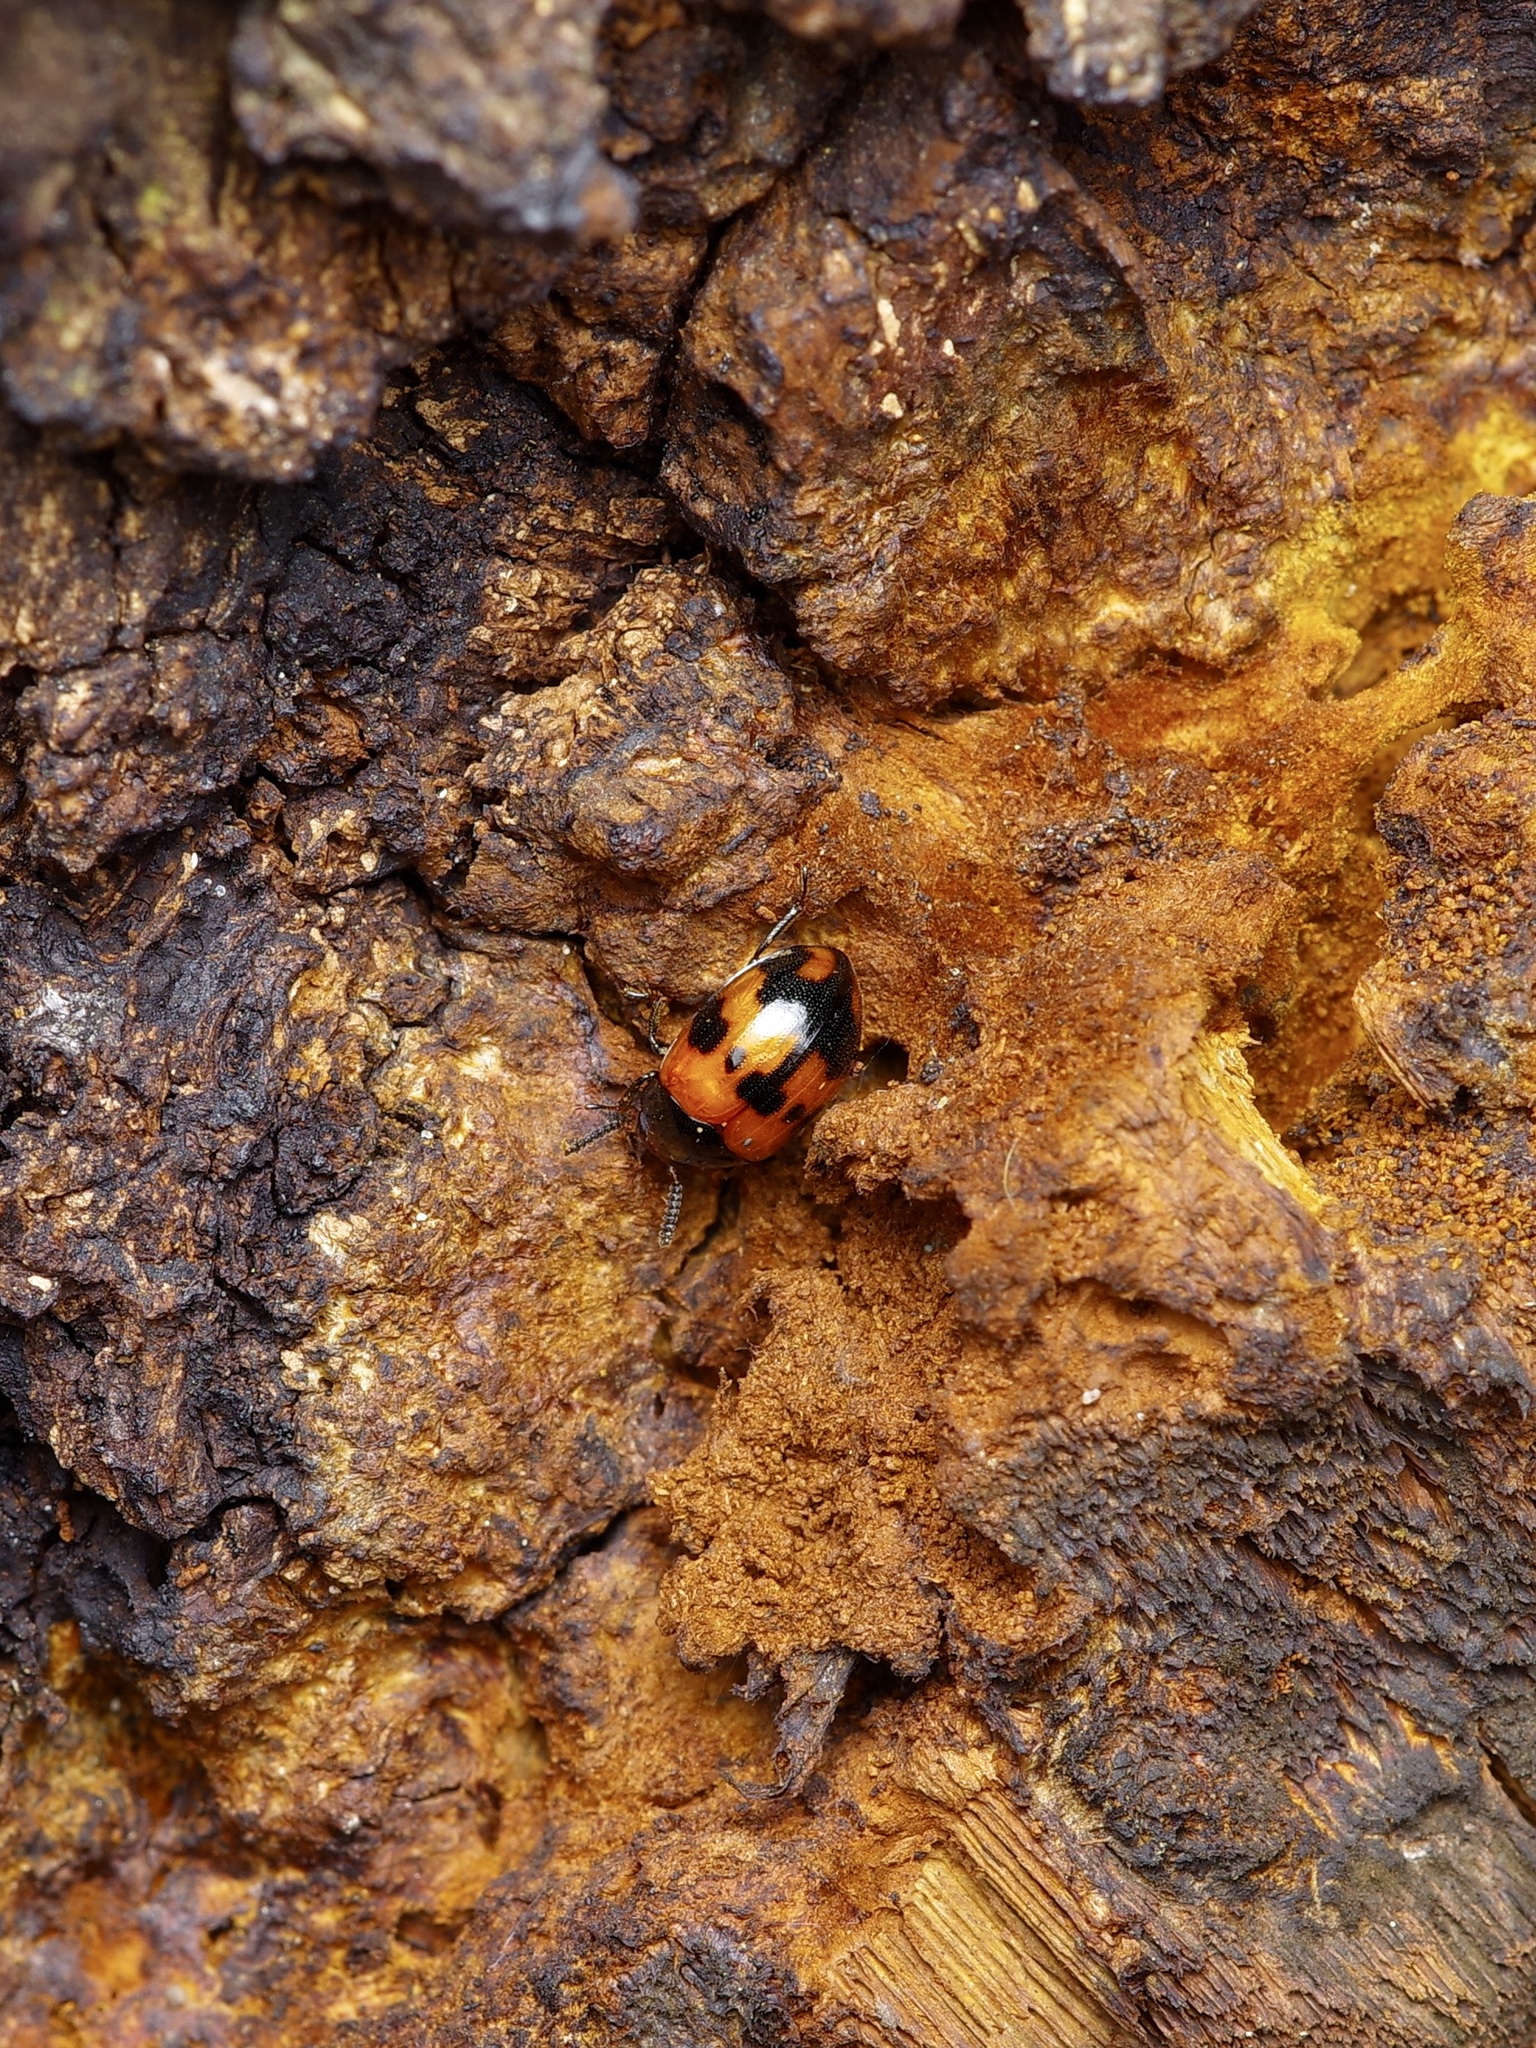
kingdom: Animalia
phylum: Arthropoda
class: Insecta
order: Coleoptera
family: Tenebrionidae
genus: Diaperis
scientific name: Diaperis nigronotata
